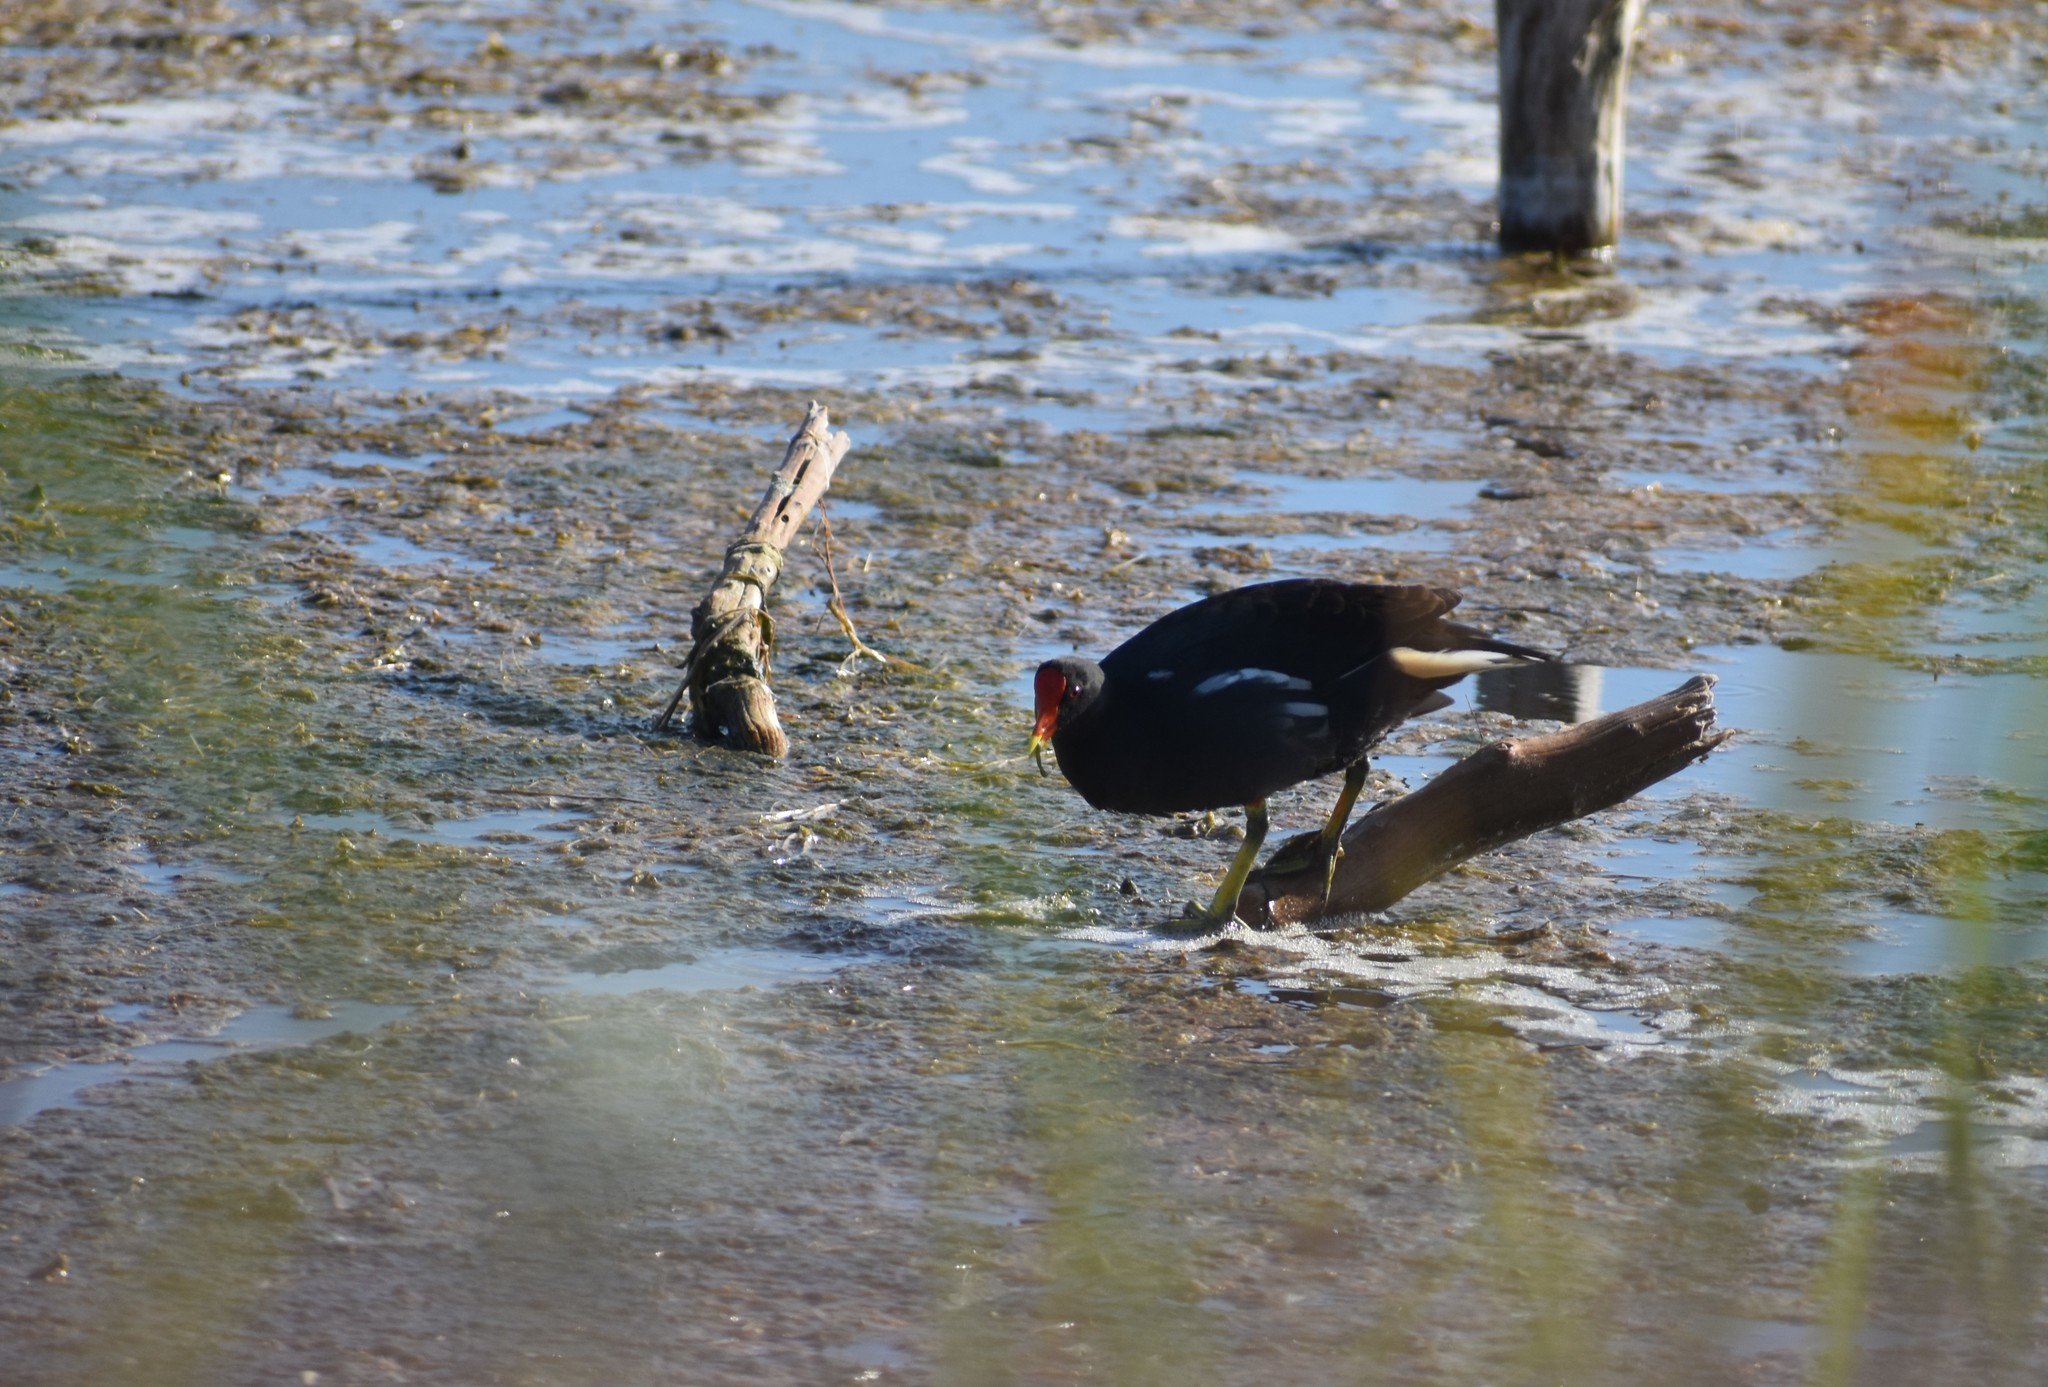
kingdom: Animalia
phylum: Chordata
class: Aves
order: Gruiformes
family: Rallidae
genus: Gallinula
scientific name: Gallinula chloropus
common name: Common moorhen
